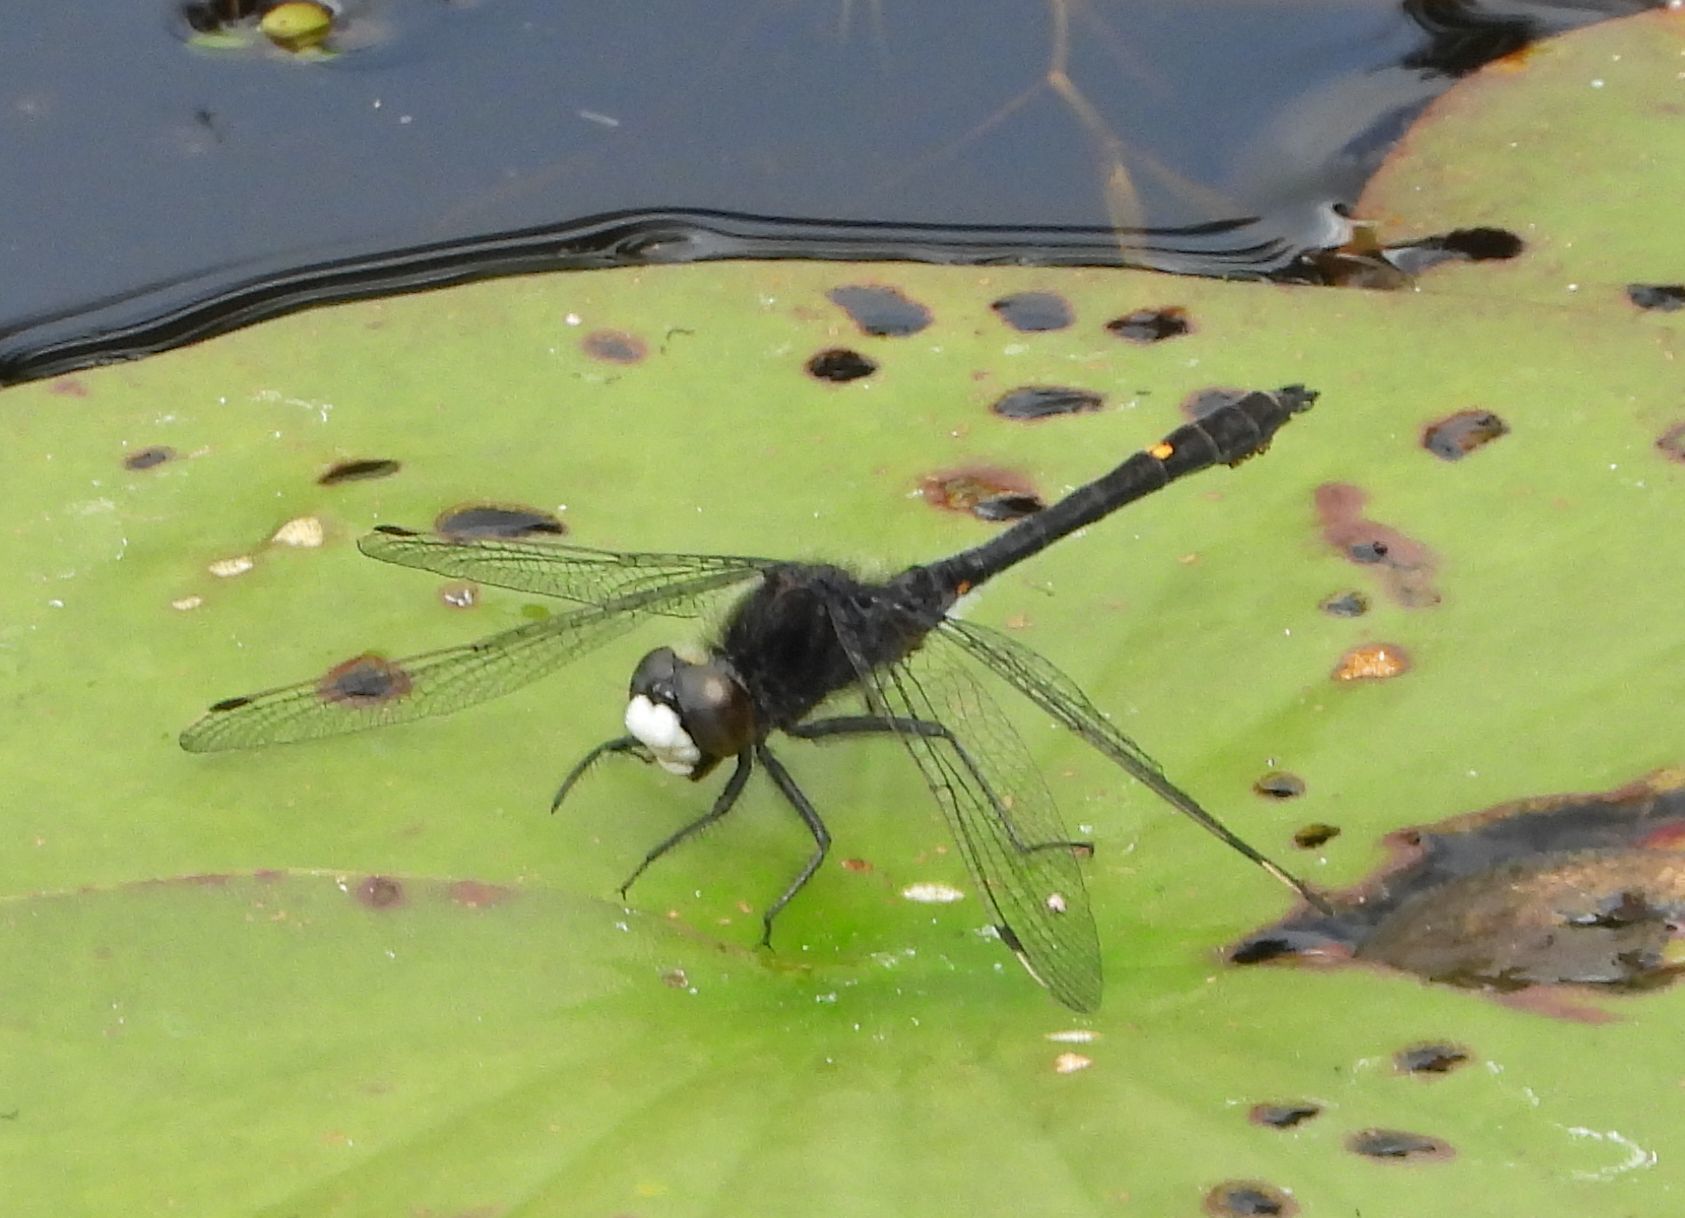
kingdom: Animalia
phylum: Arthropoda
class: Insecta
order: Odonata
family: Libellulidae
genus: Leucorrhinia
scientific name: Leucorrhinia intacta
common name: Dot-tailed whiteface
